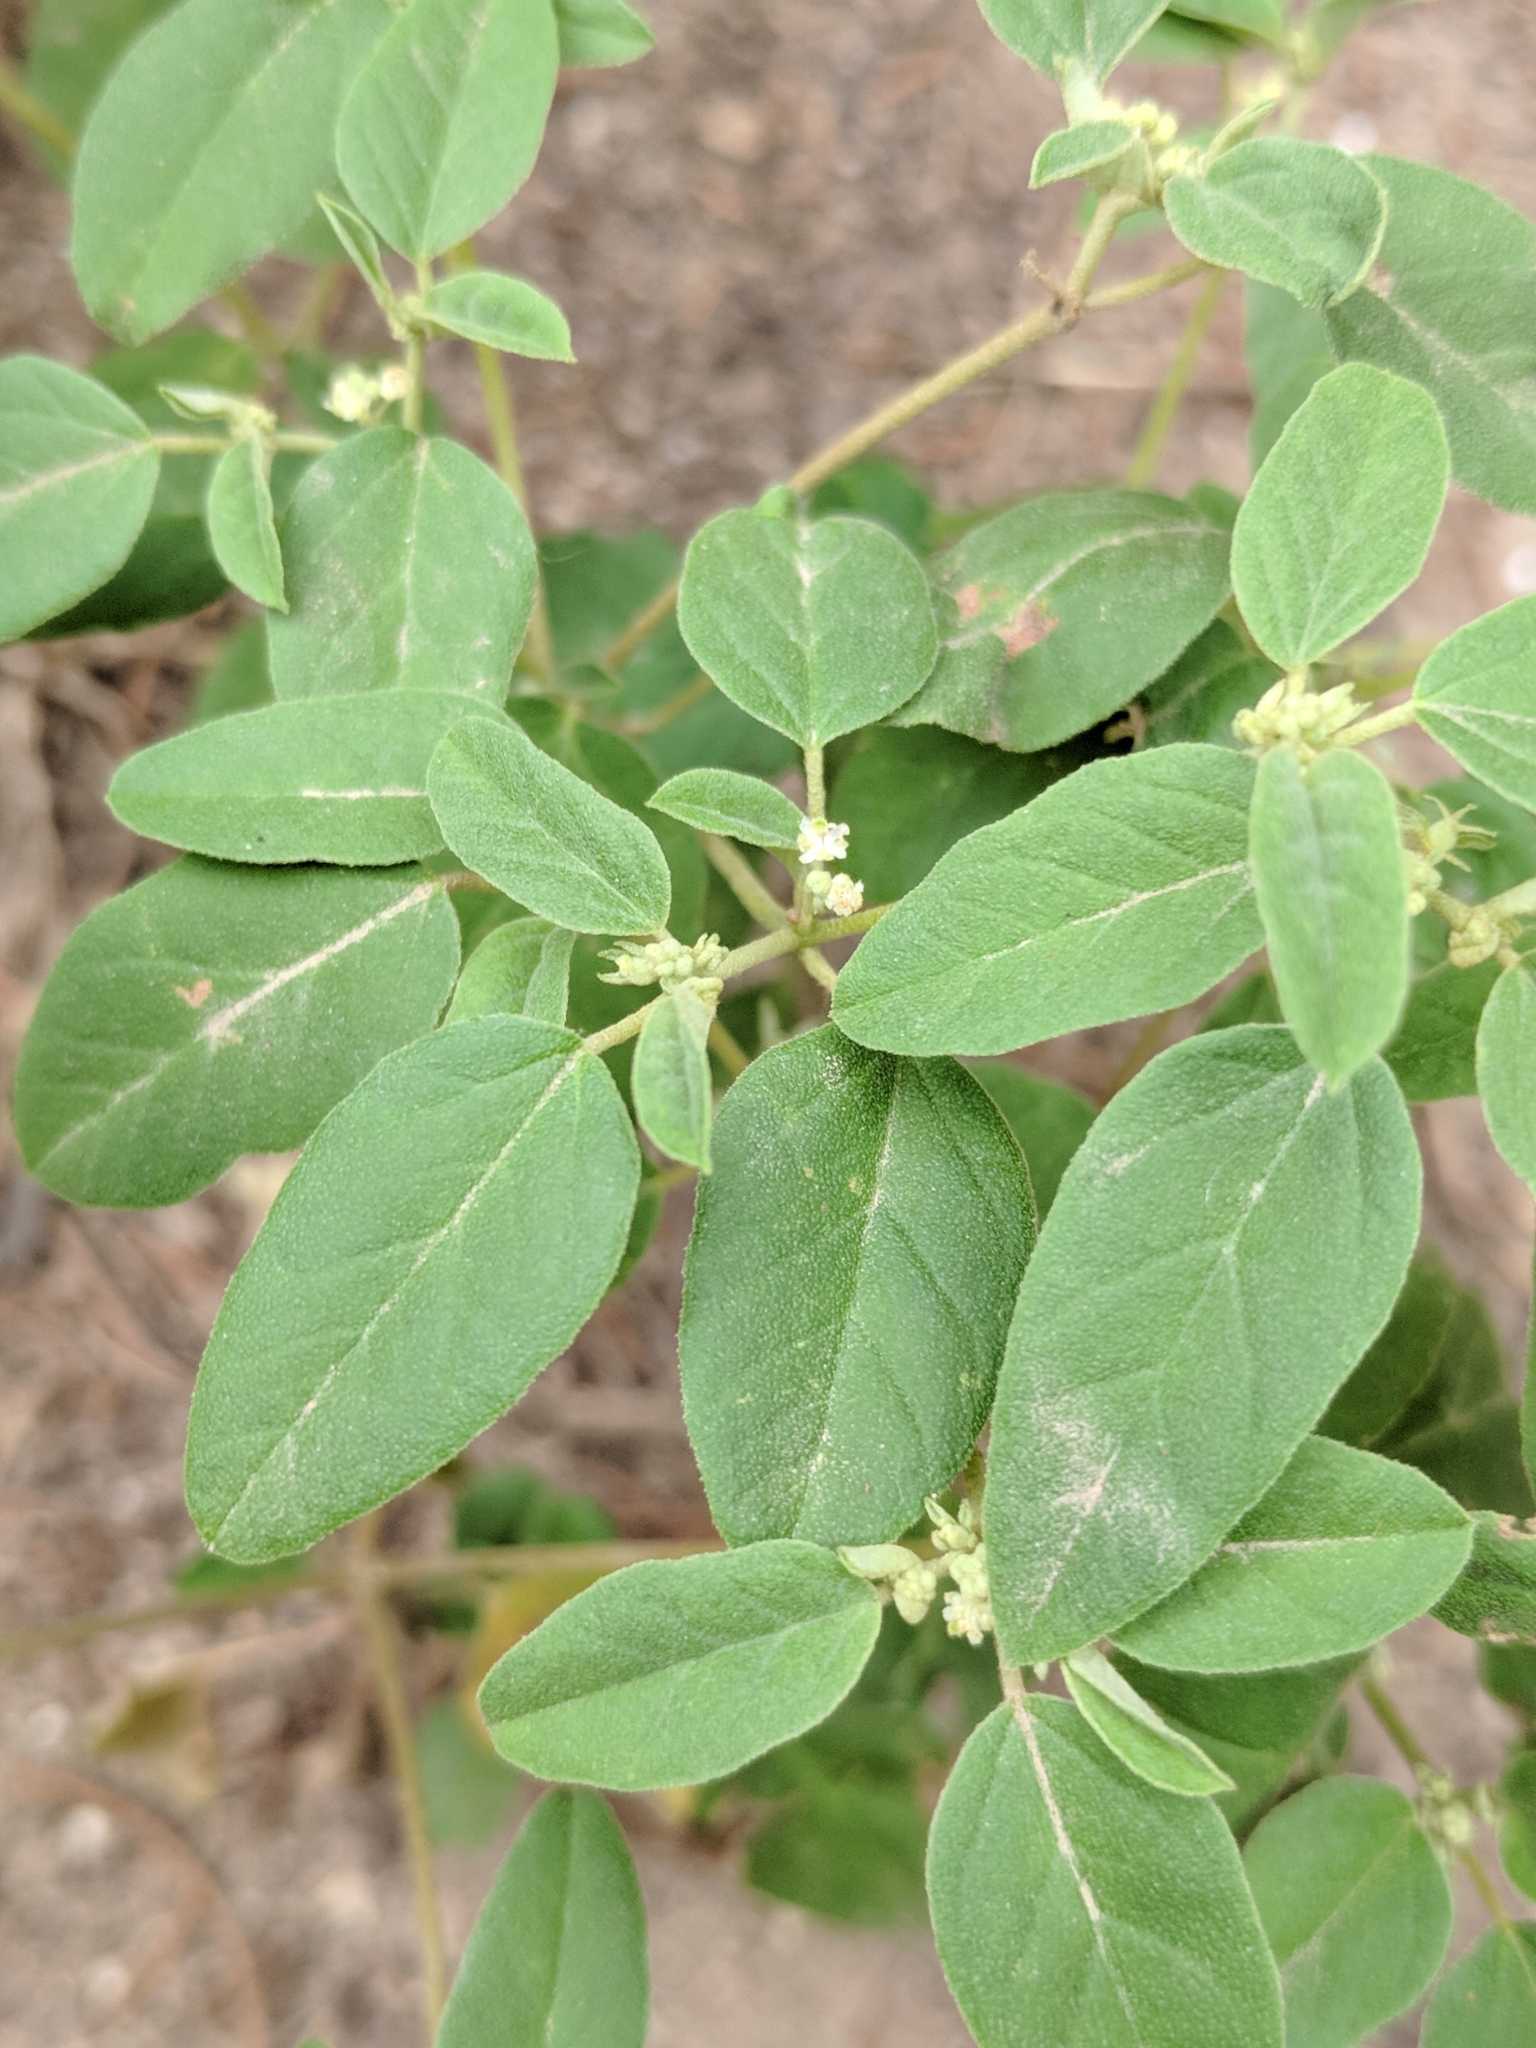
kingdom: Plantae
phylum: Tracheophyta
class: Magnoliopsida
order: Malpighiales
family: Euphorbiaceae
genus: Croton
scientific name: Croton monanthogynus
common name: One-seed croton
